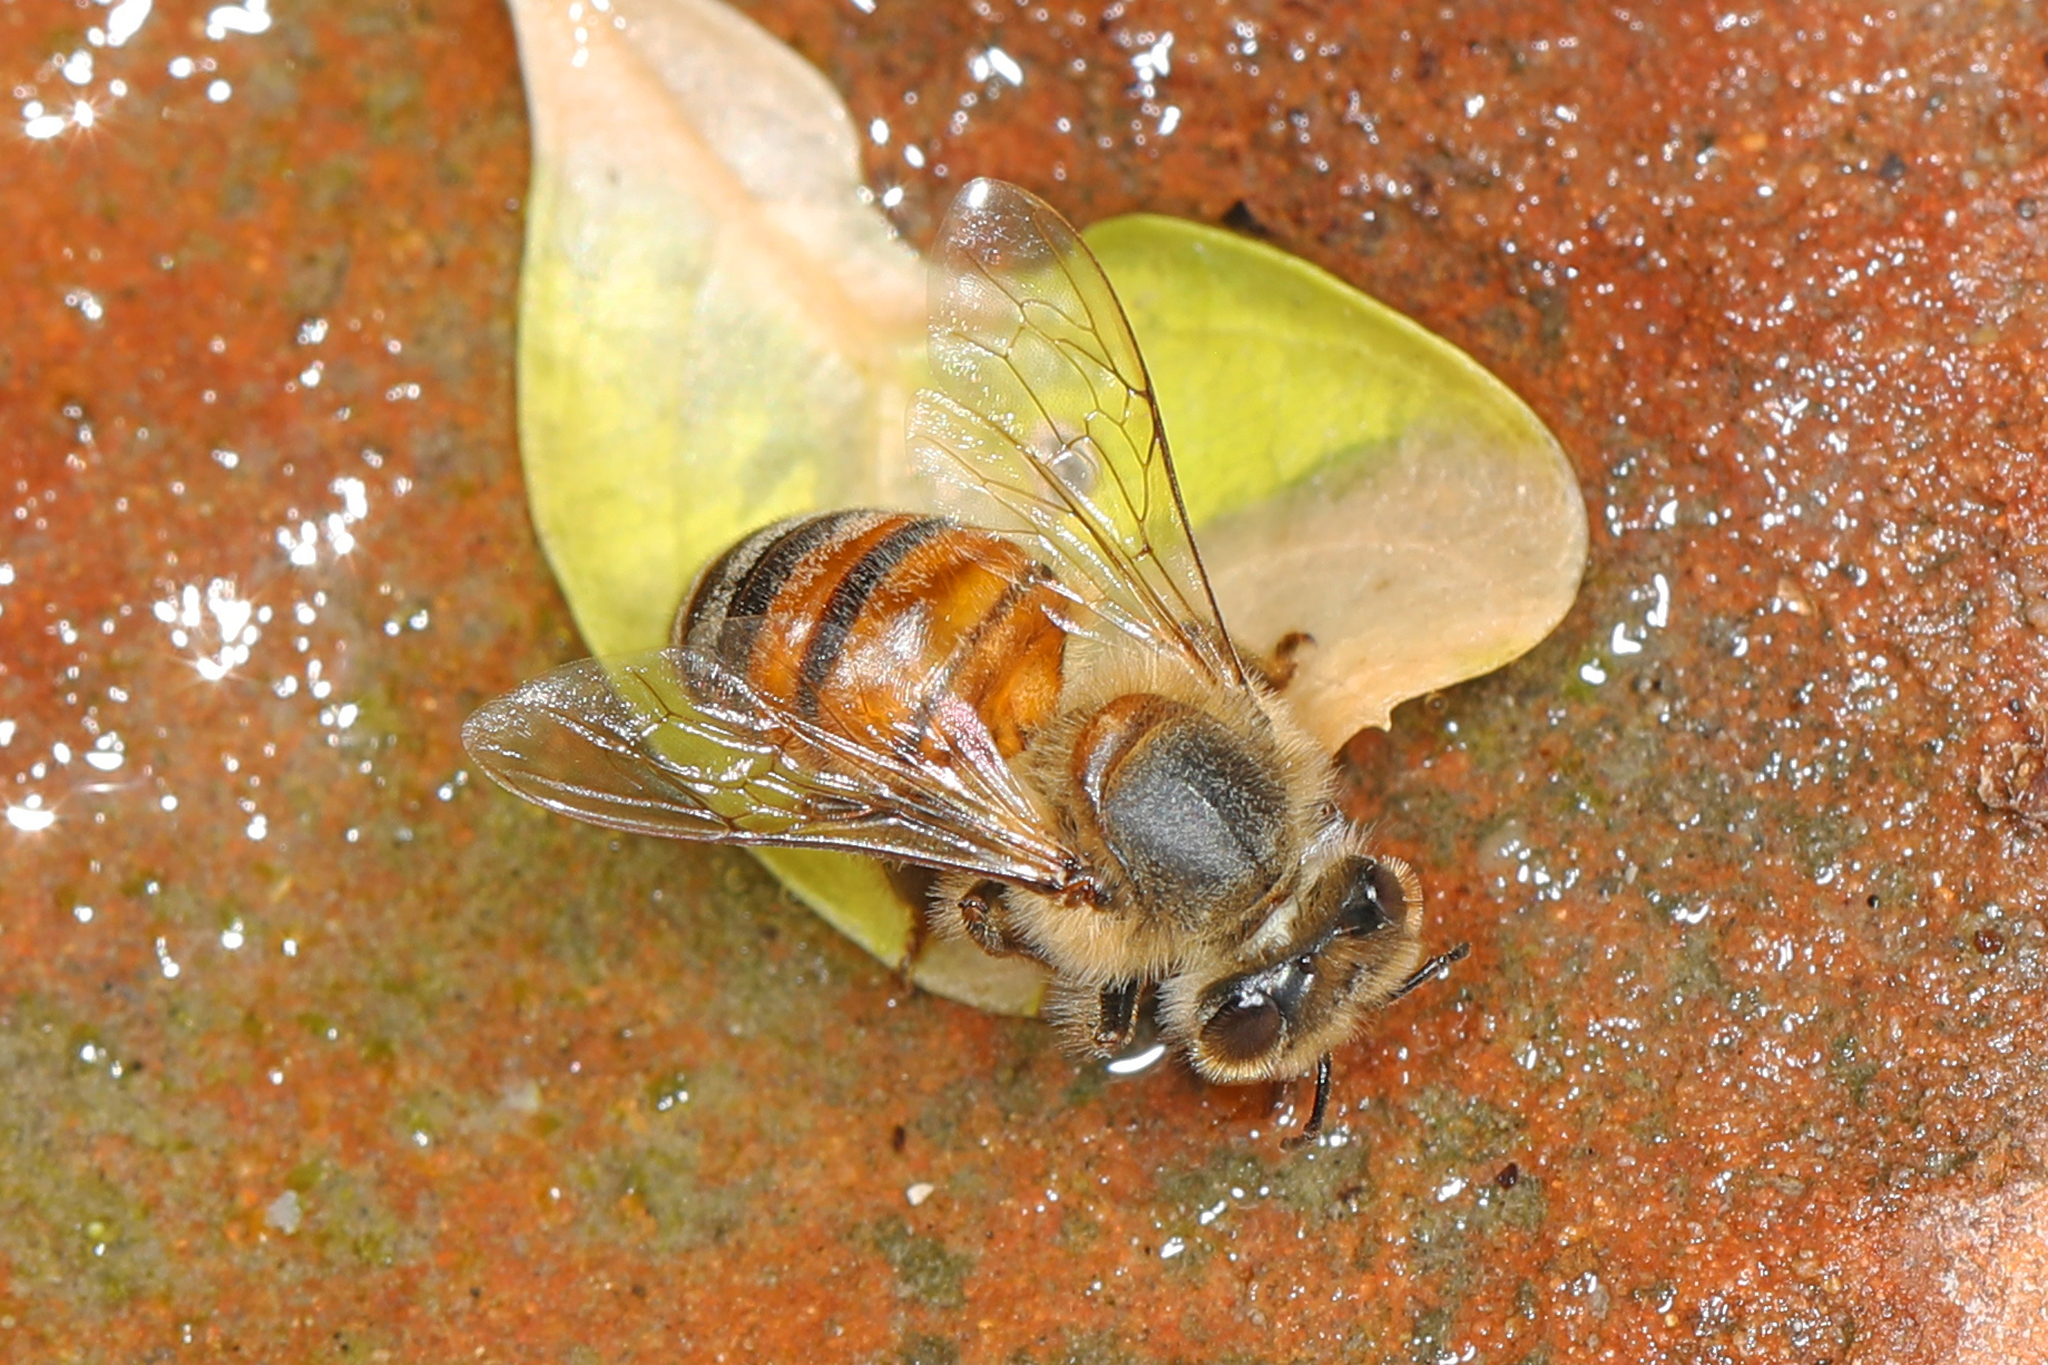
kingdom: Animalia
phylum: Arthropoda
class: Insecta
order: Hymenoptera
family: Apidae
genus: Apis
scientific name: Apis mellifera
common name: Honey bee
